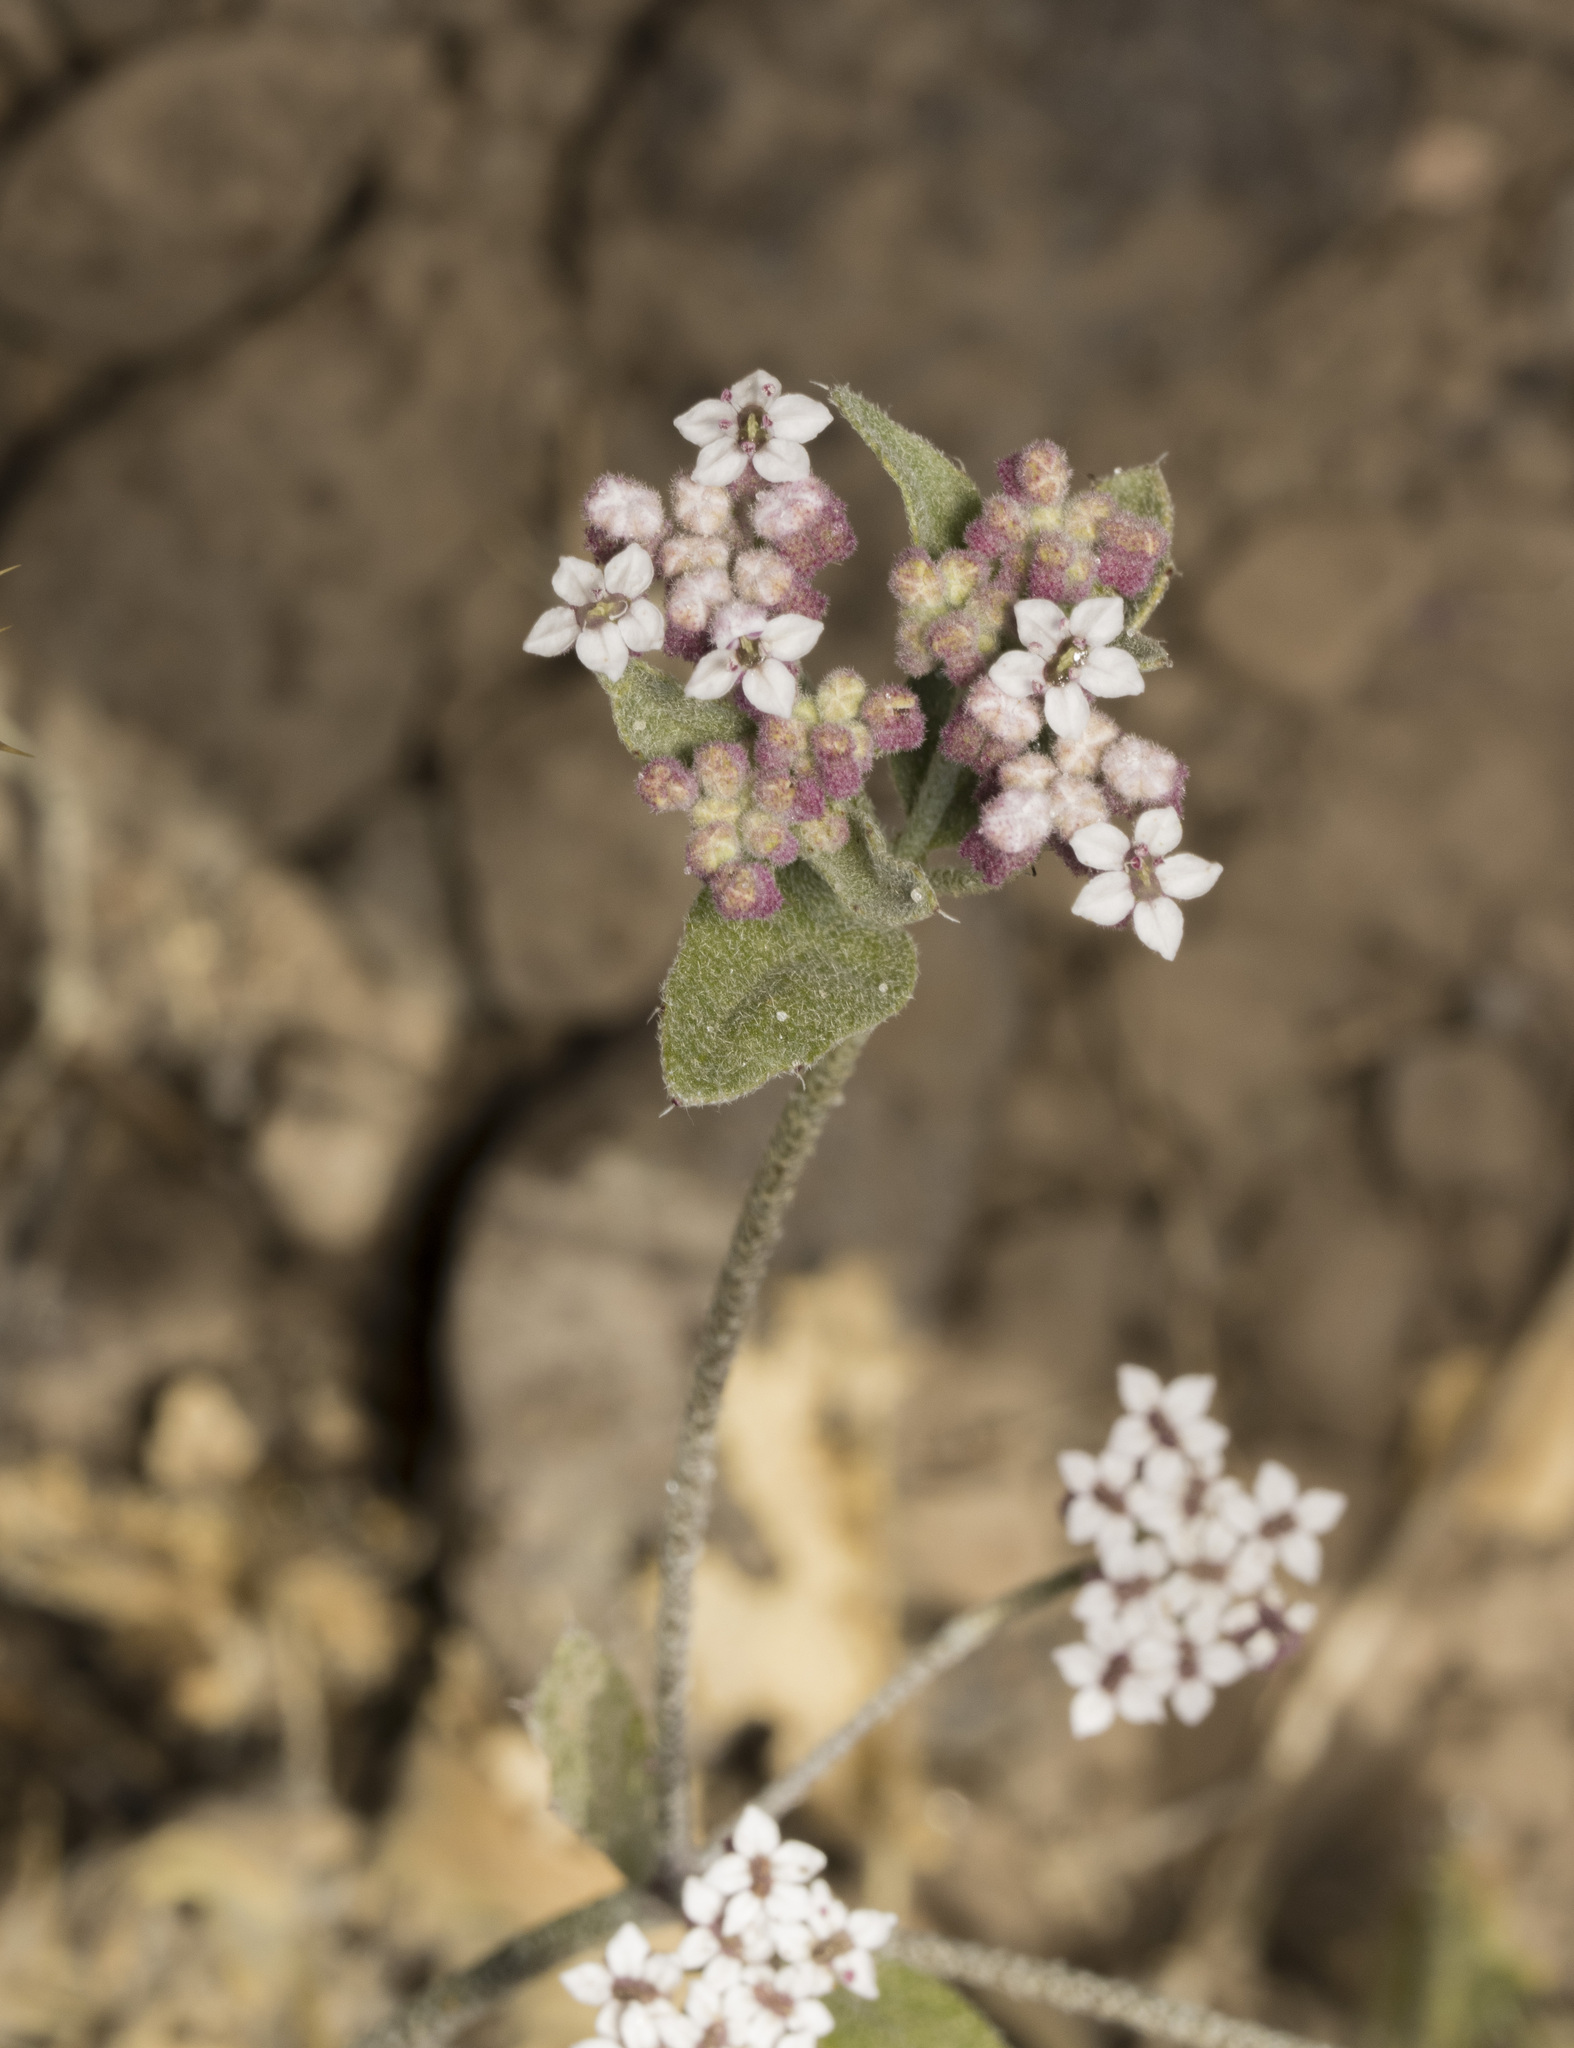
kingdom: Plantae
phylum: Tracheophyta
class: Magnoliopsida
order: Apiales
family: Apiaceae
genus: Homalocarpus
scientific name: Homalocarpus dichotomus
